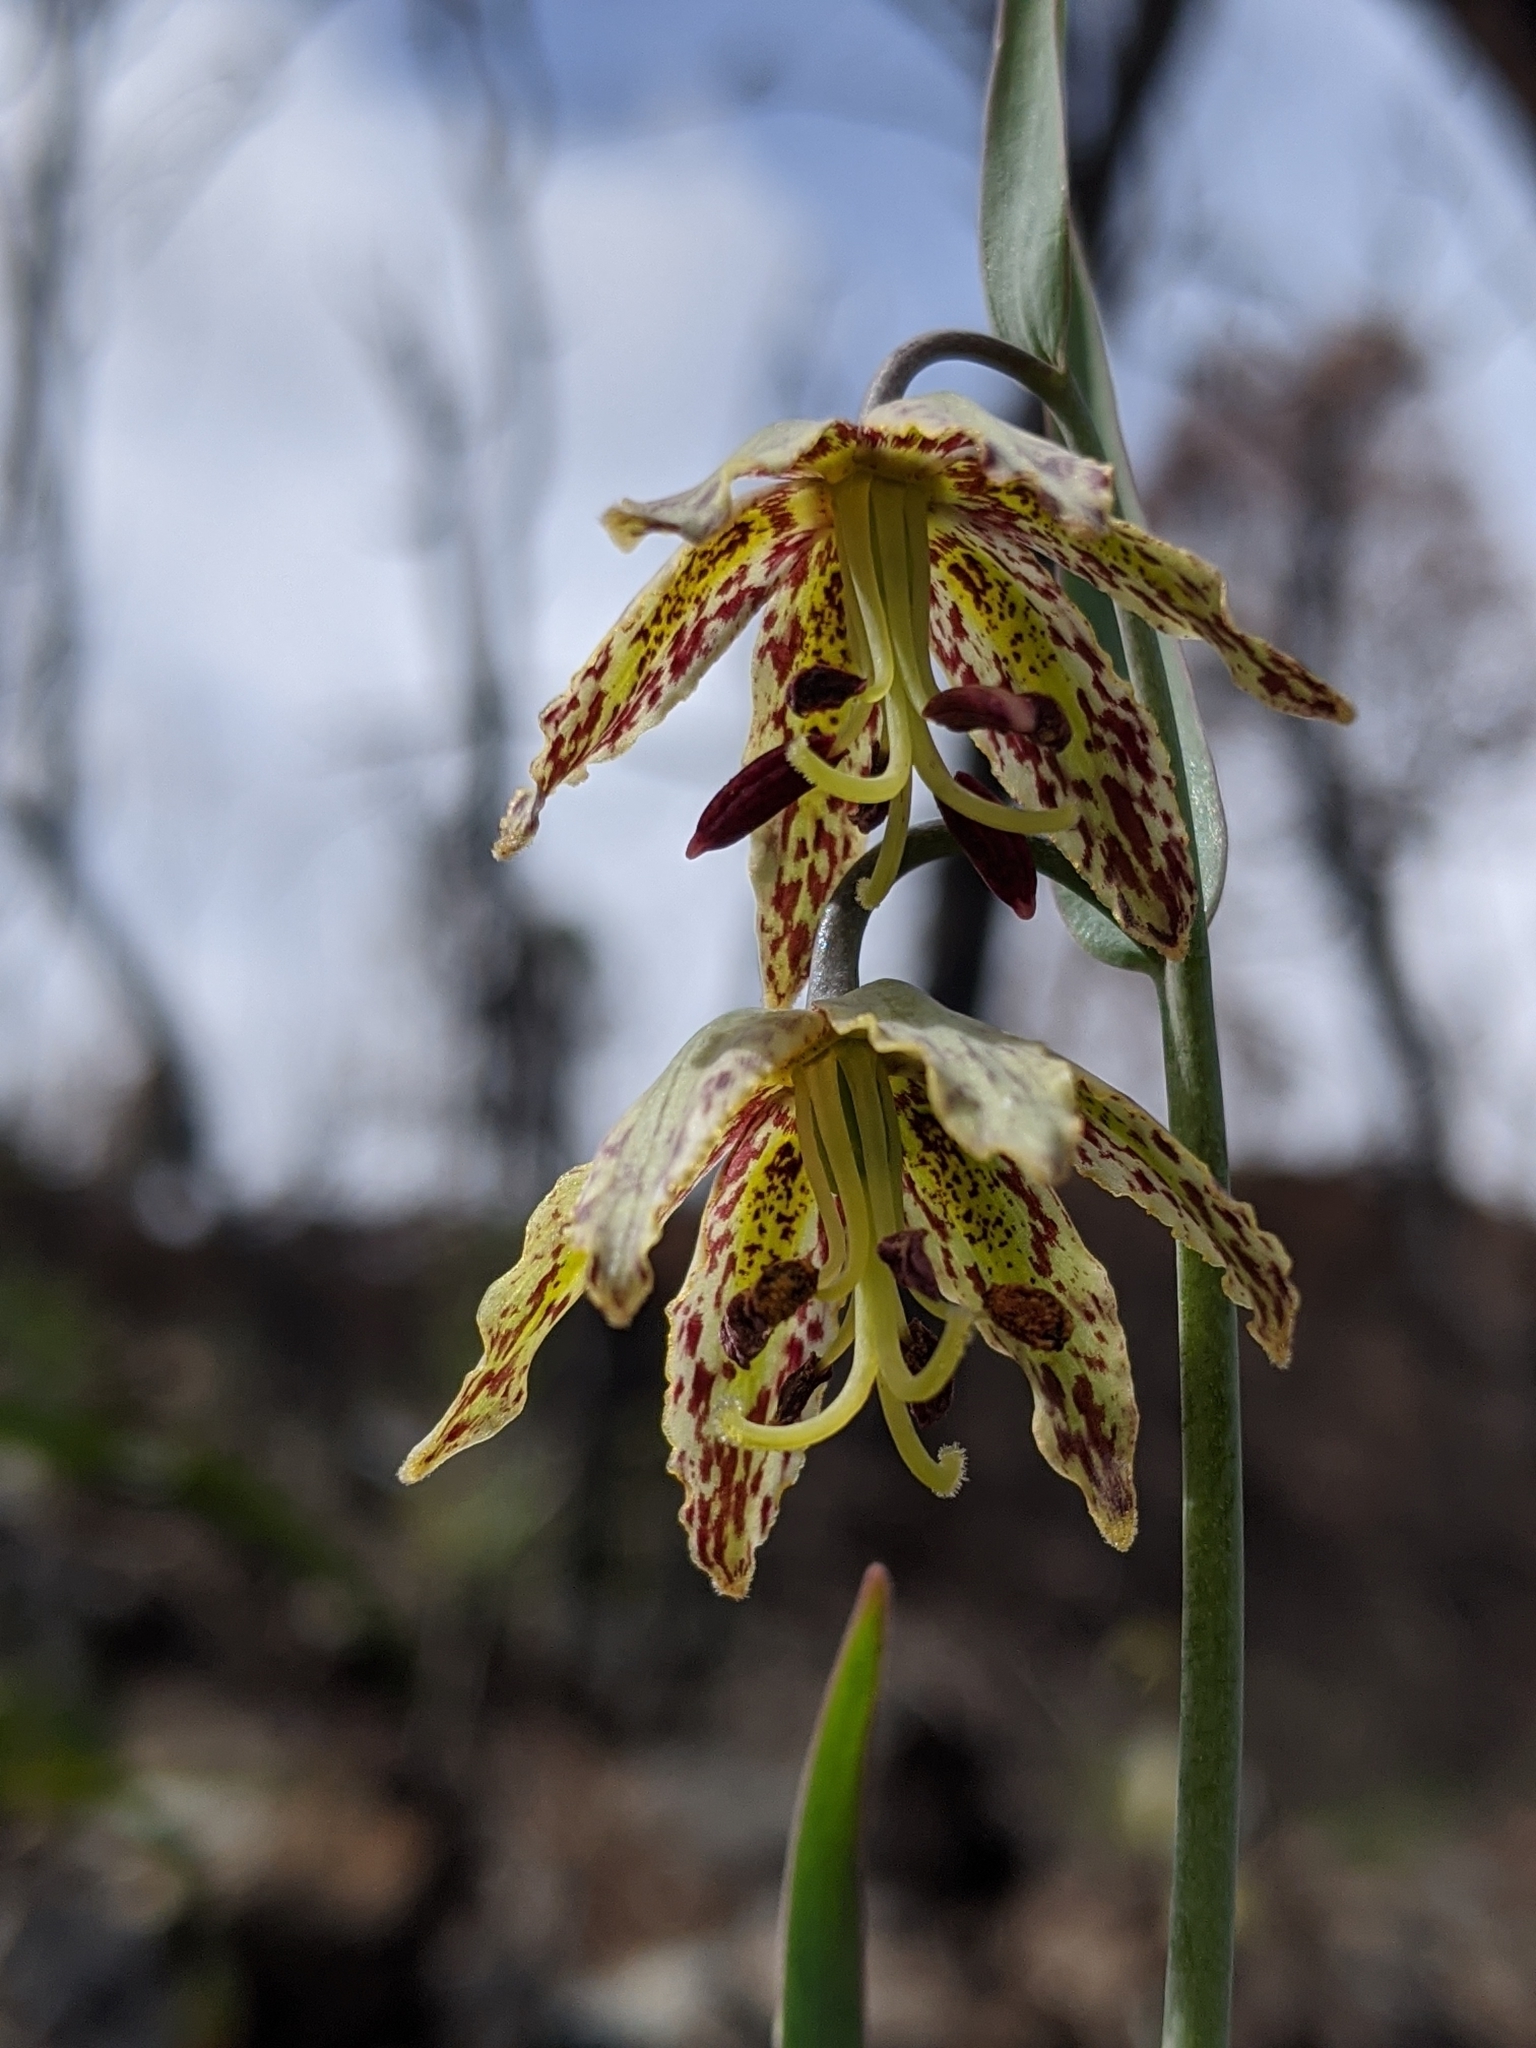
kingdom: Plantae
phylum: Tracheophyta
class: Liliopsida
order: Liliales
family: Liliaceae
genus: Fritillaria
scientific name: Fritillaria affinis
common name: Ojai fritillary
